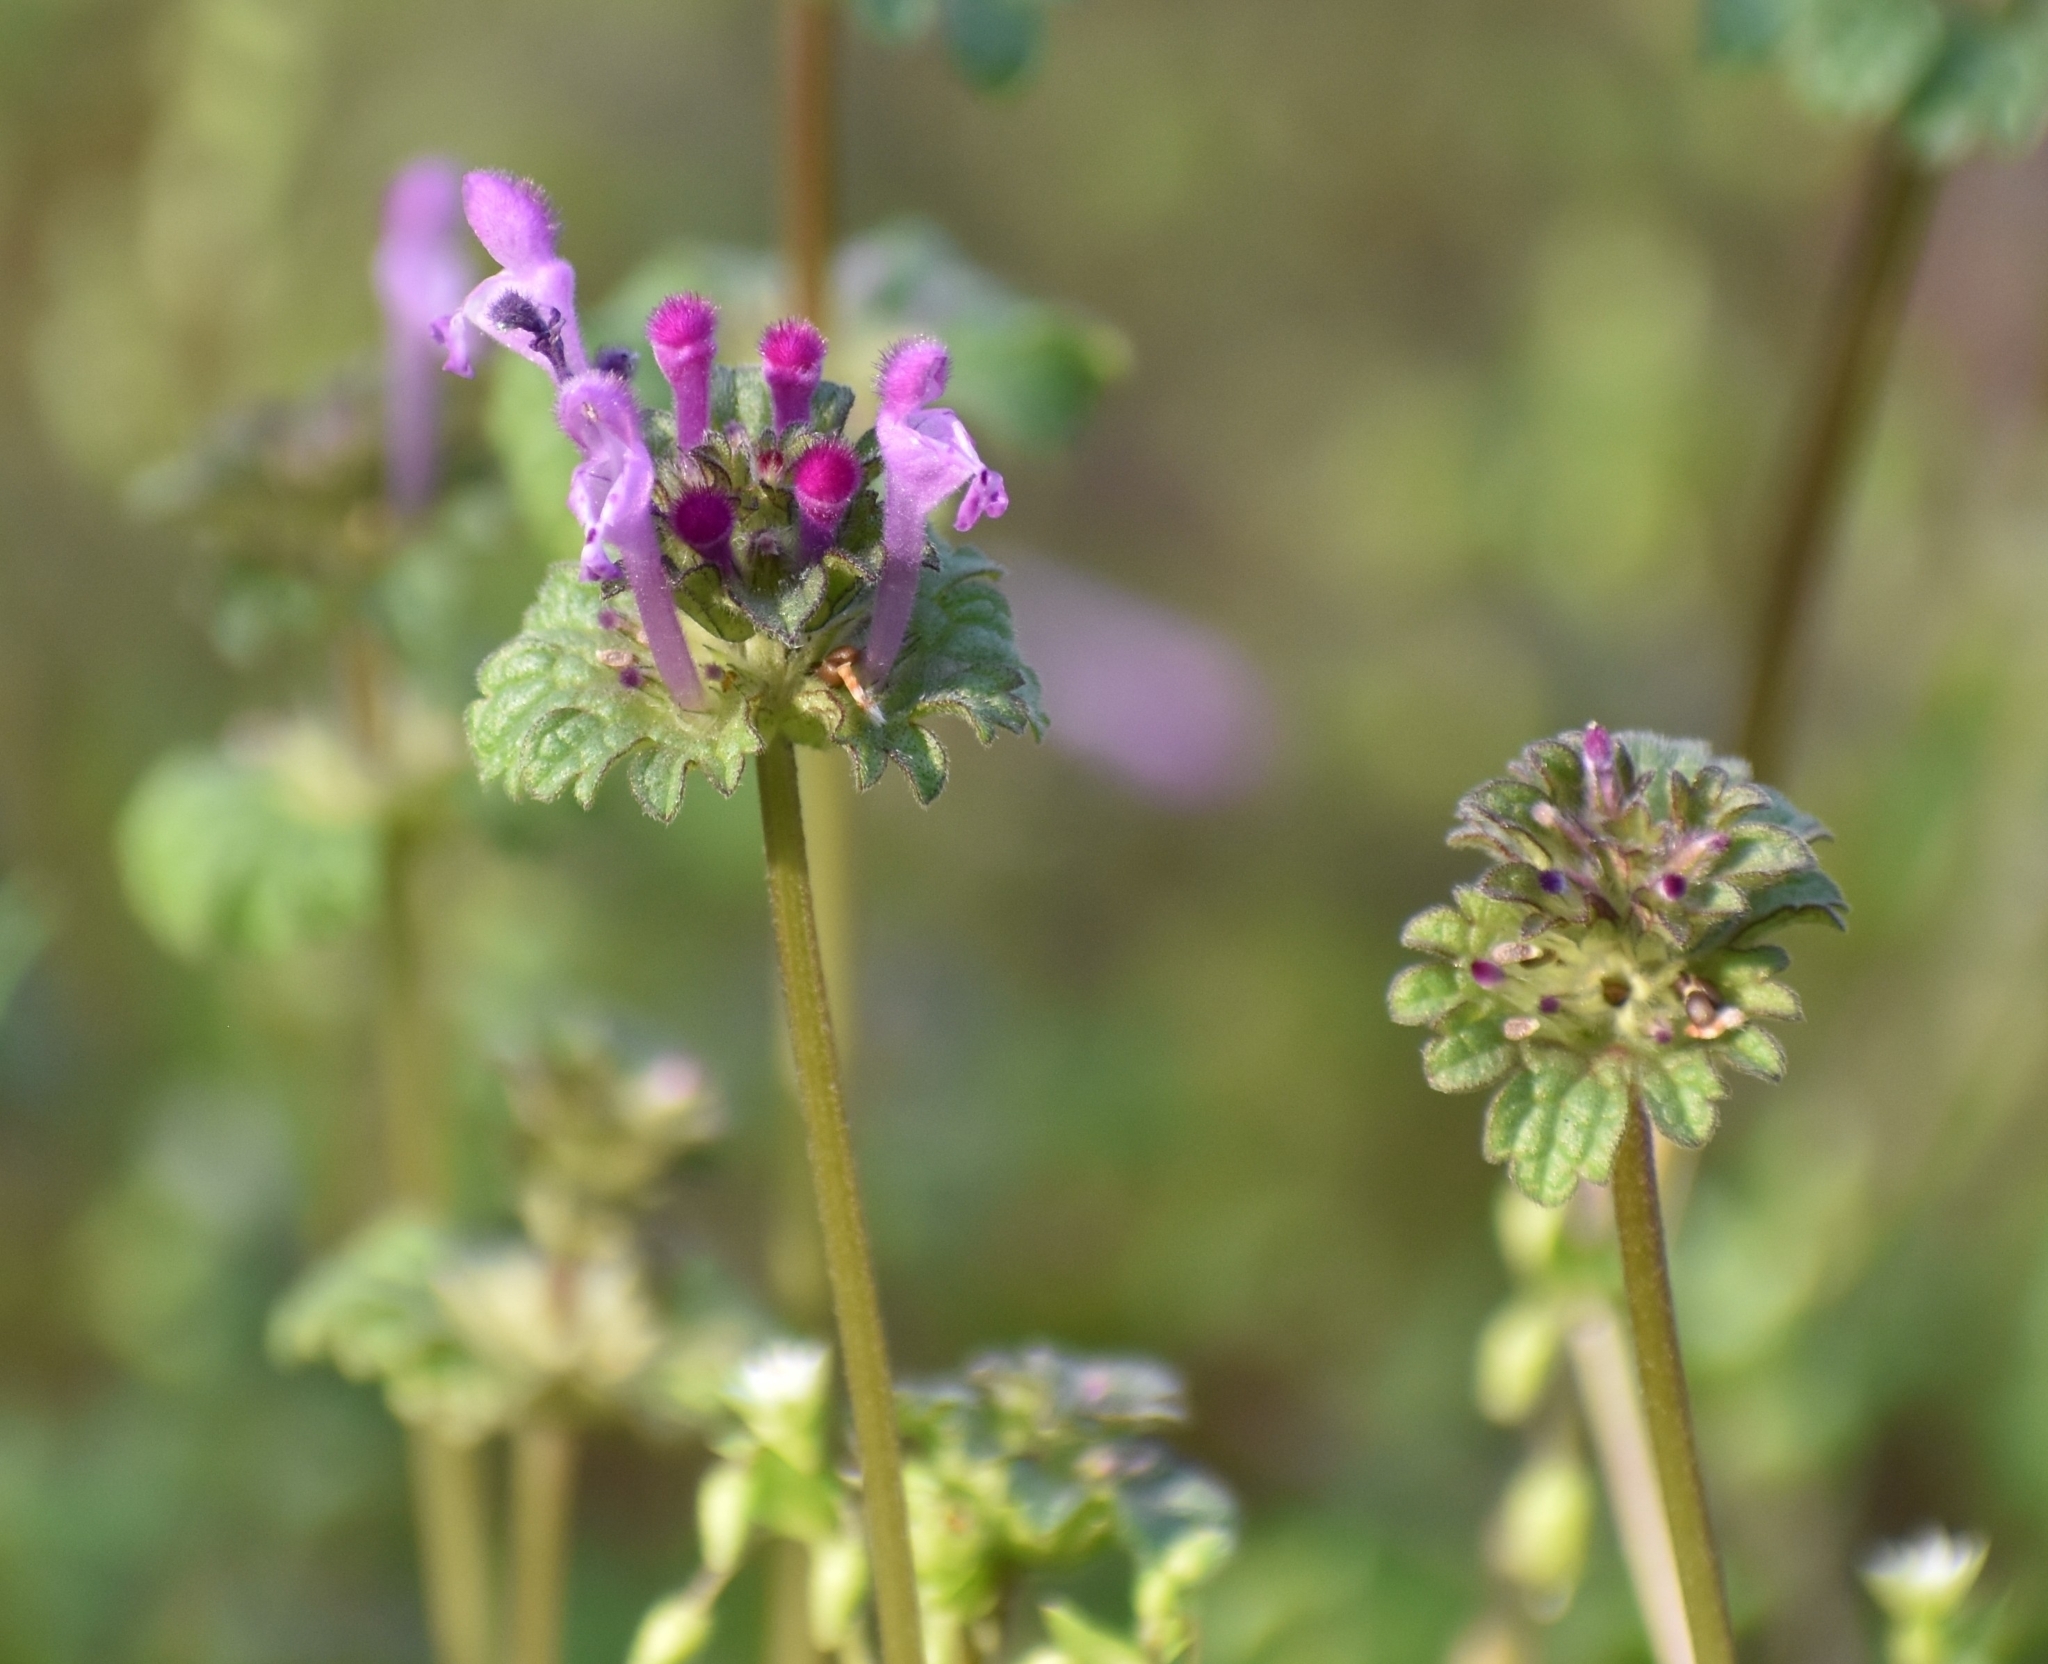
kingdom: Plantae
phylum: Tracheophyta
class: Magnoliopsida
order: Lamiales
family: Lamiaceae
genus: Lamium
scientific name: Lamium amplexicaule
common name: Henbit dead-nettle
